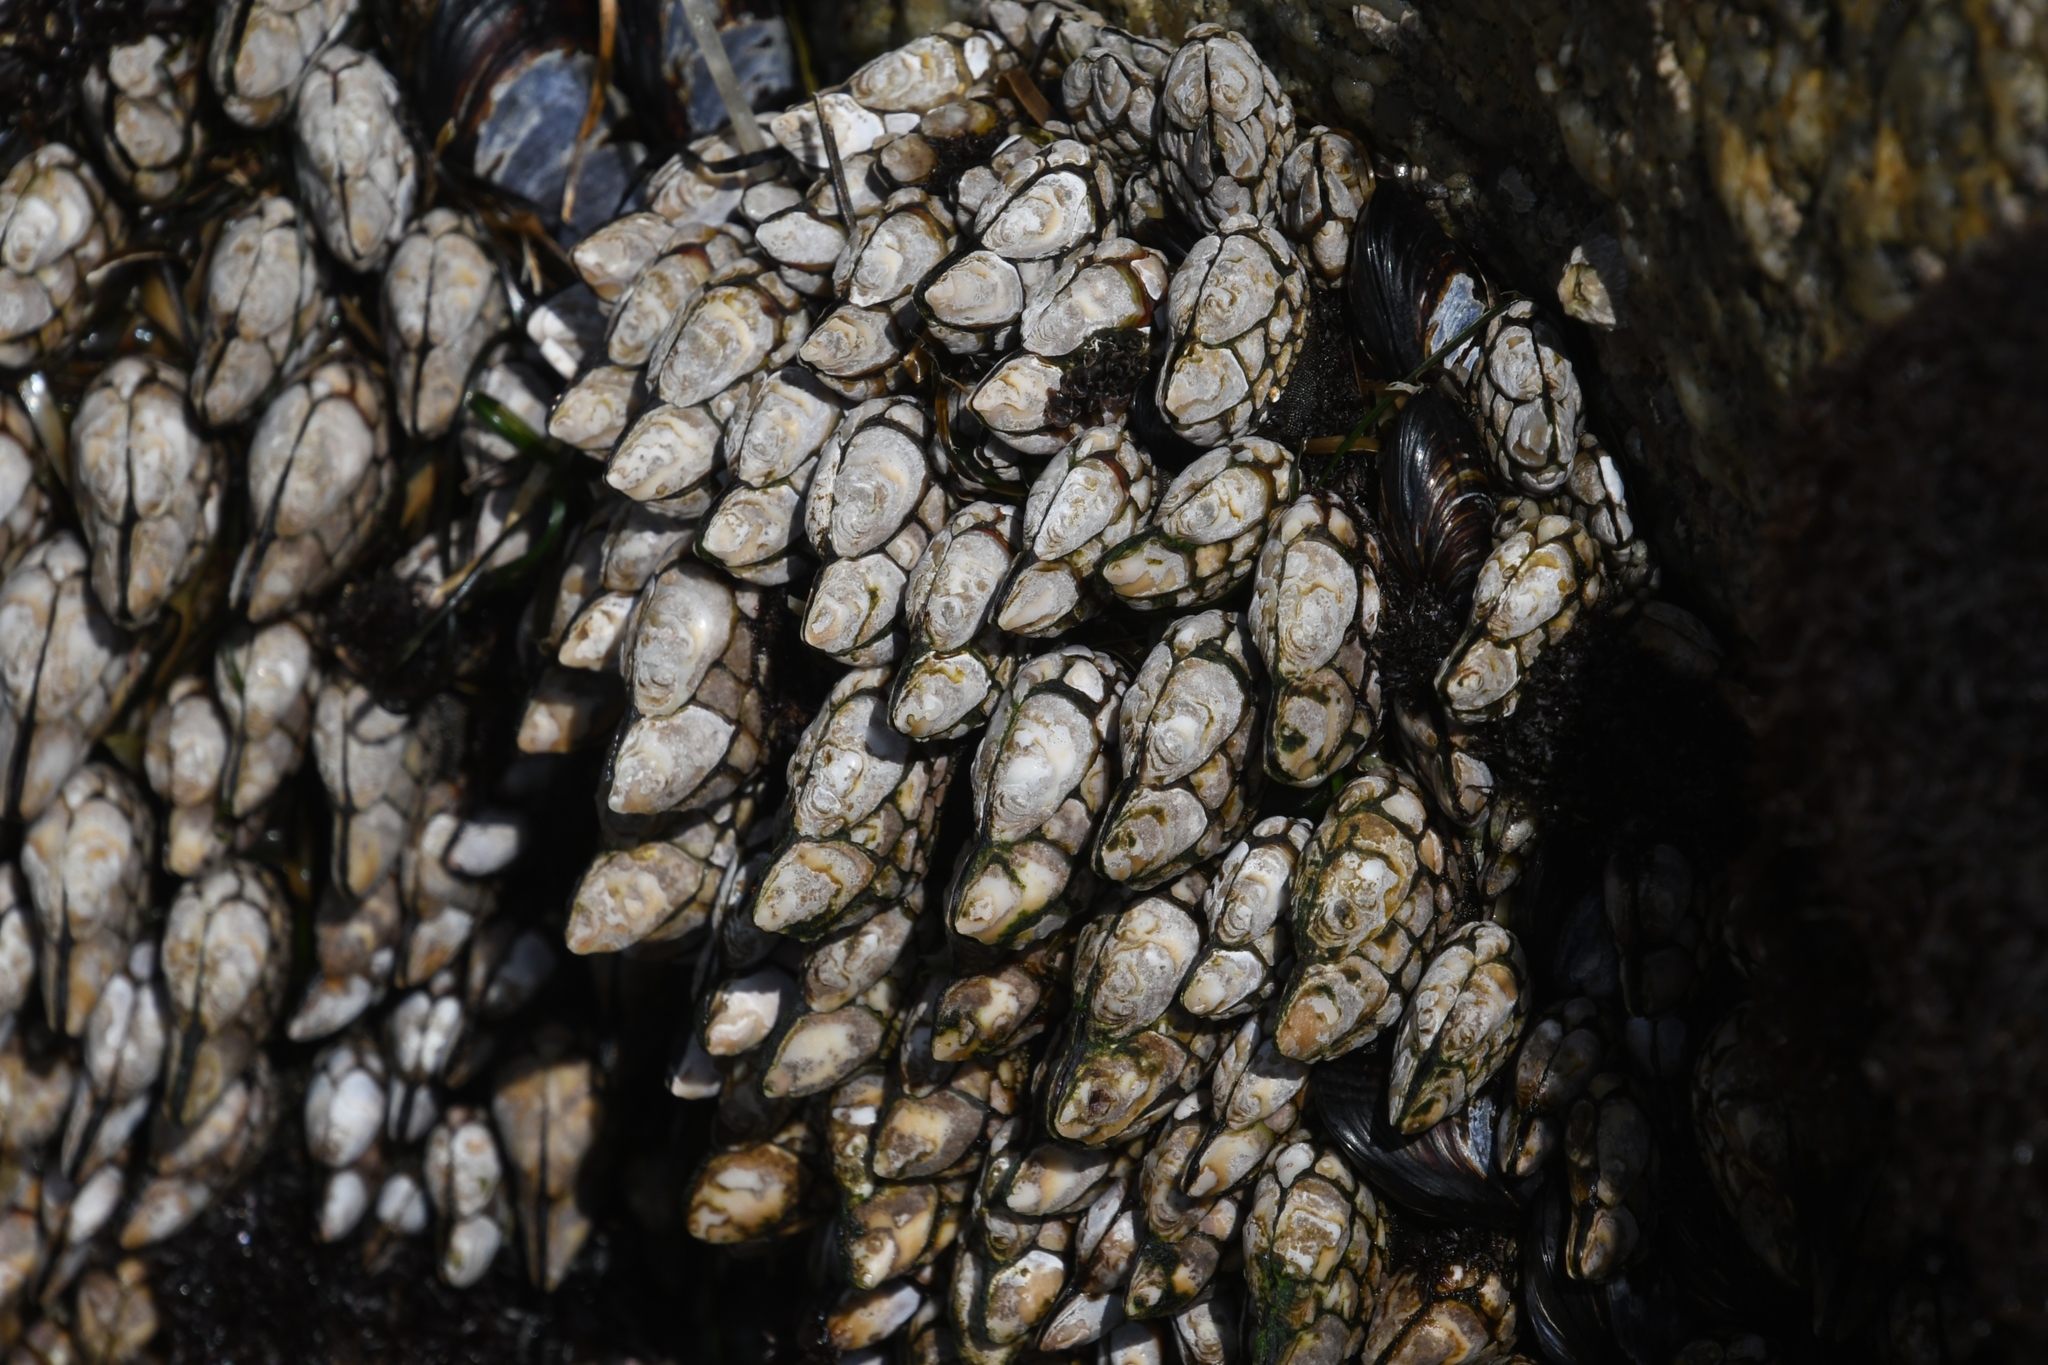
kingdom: Animalia
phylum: Arthropoda
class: Maxillopoda
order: Pedunculata
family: Pollicipedidae
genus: Pollicipes
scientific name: Pollicipes polymerus
